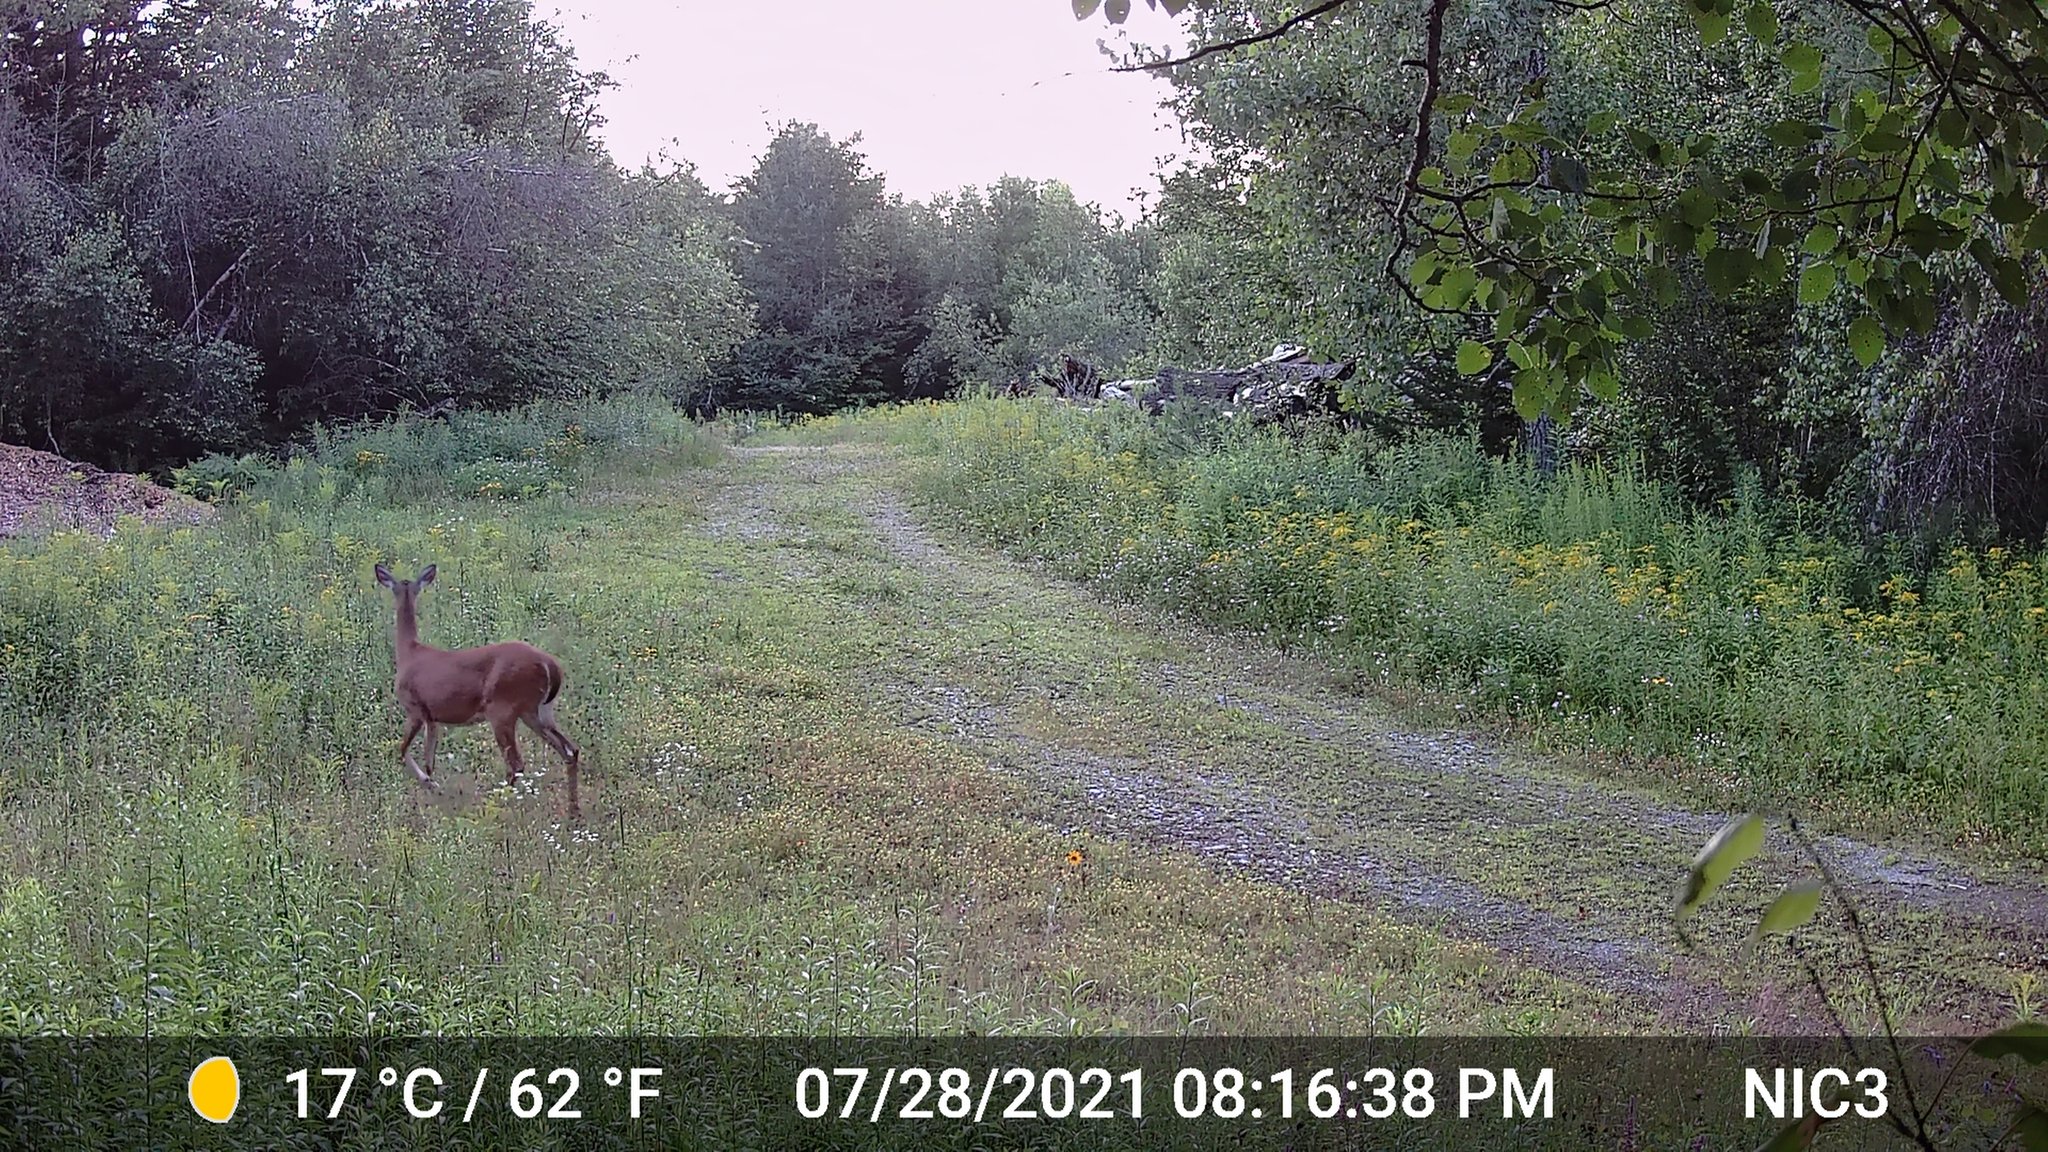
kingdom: Animalia
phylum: Chordata
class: Mammalia
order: Artiodactyla
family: Cervidae
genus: Odocoileus
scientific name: Odocoileus virginianus
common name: White-tailed deer
